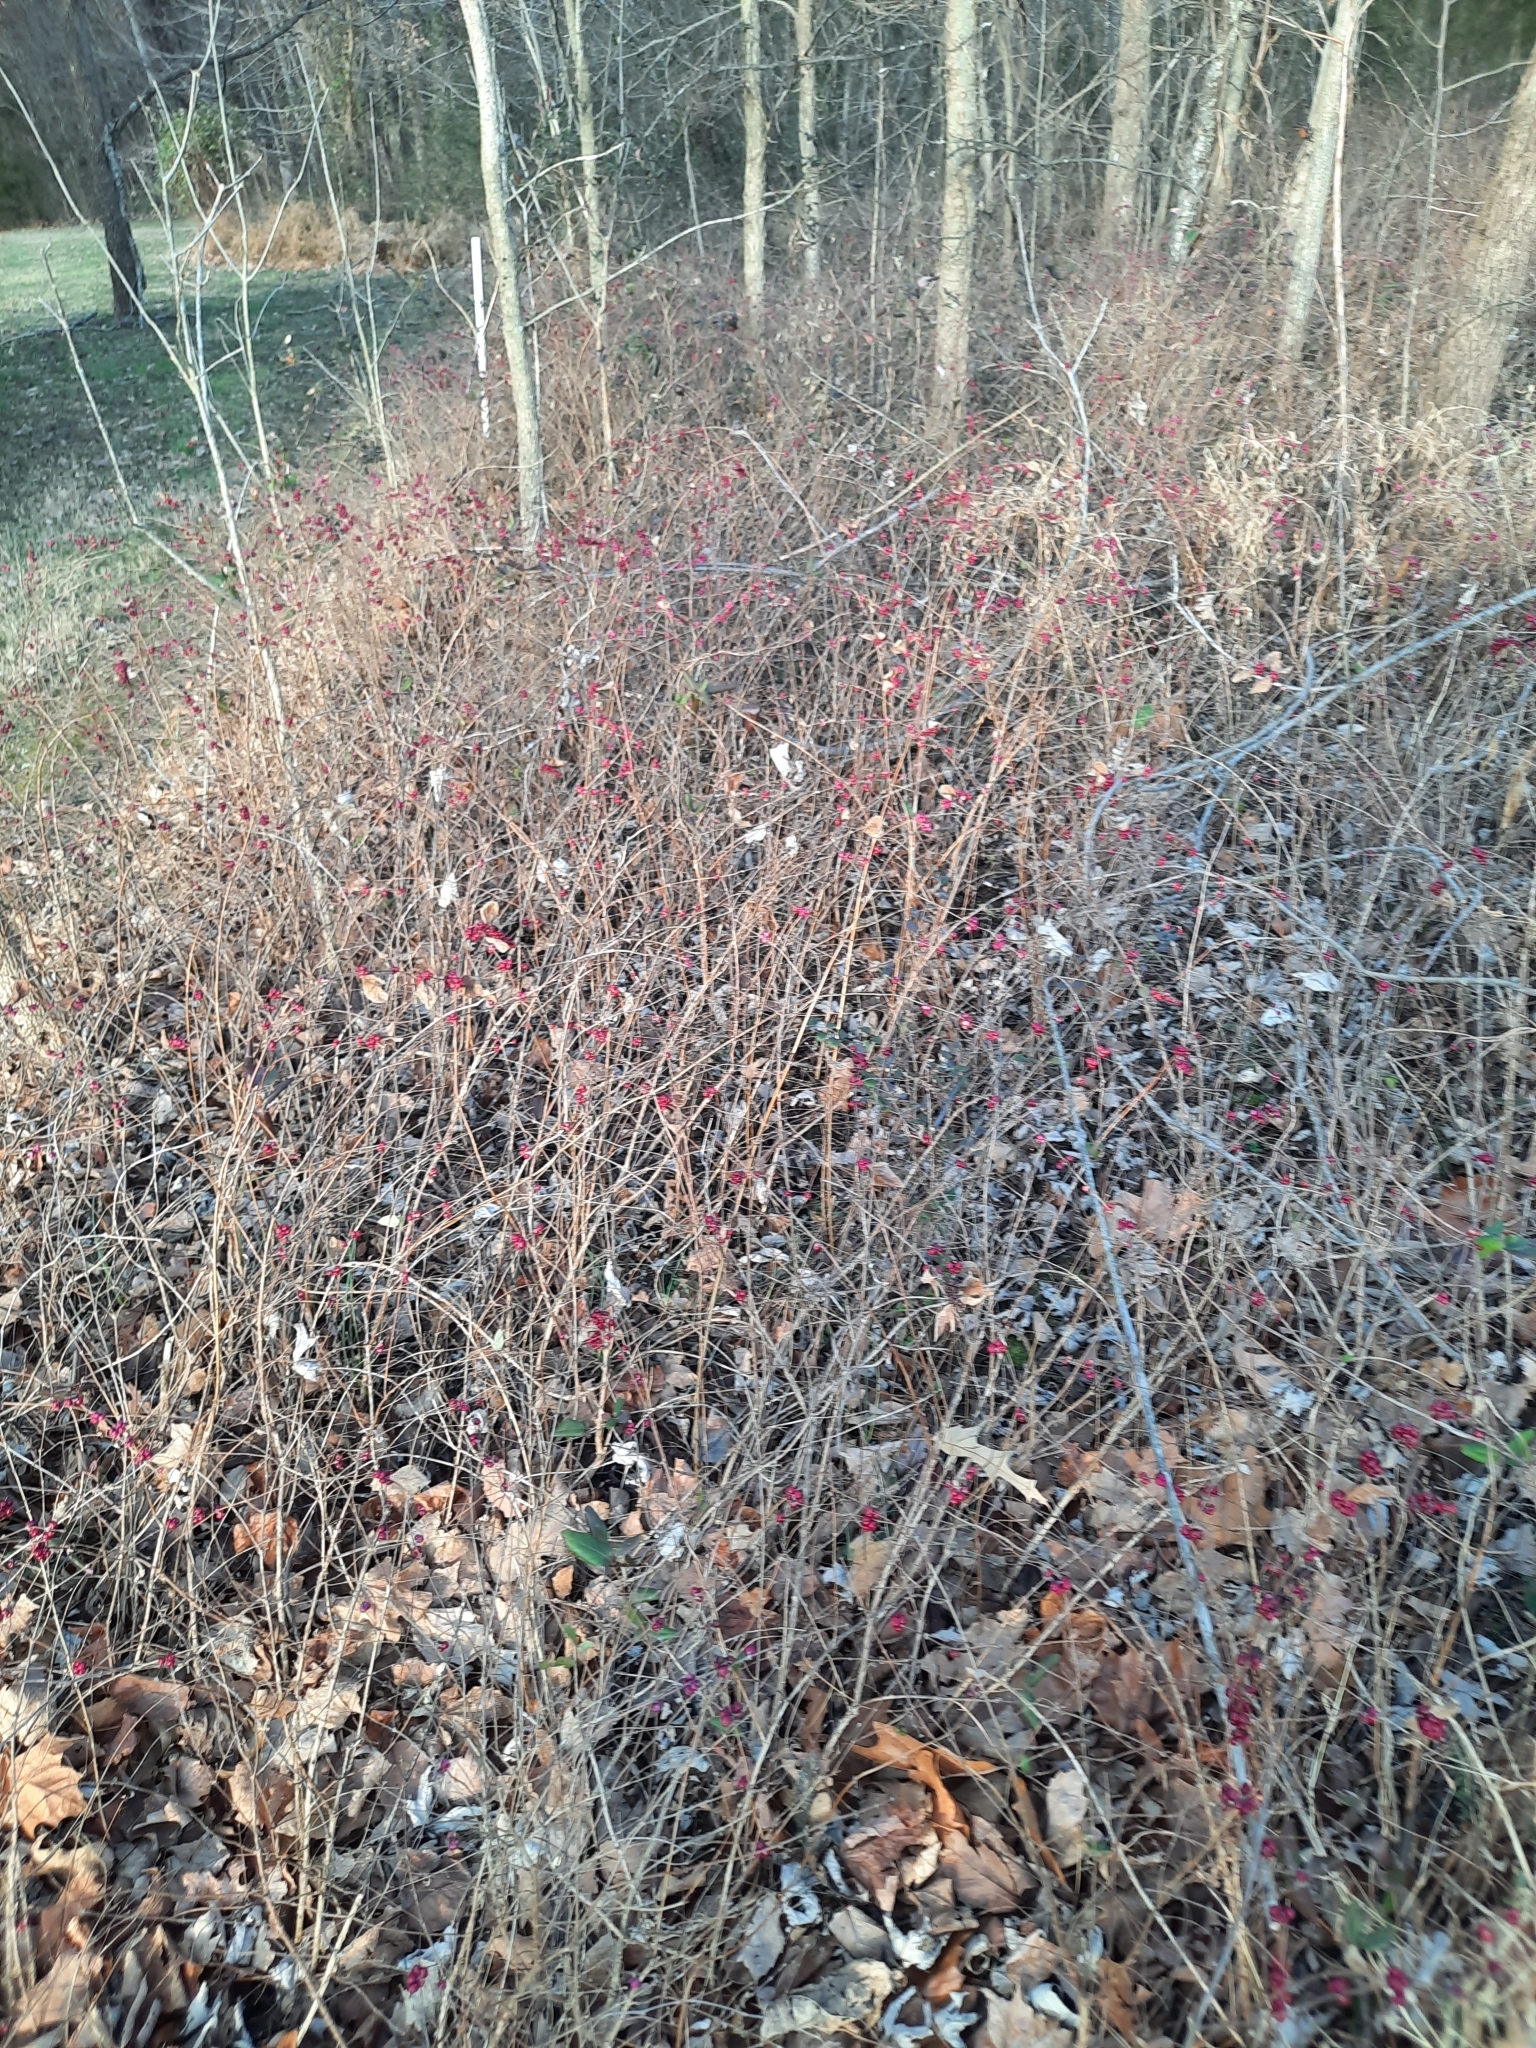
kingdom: Plantae
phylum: Tracheophyta
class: Magnoliopsida
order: Dipsacales
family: Caprifoliaceae
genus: Symphoricarpos
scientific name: Symphoricarpos orbiculatus
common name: Coralberry
